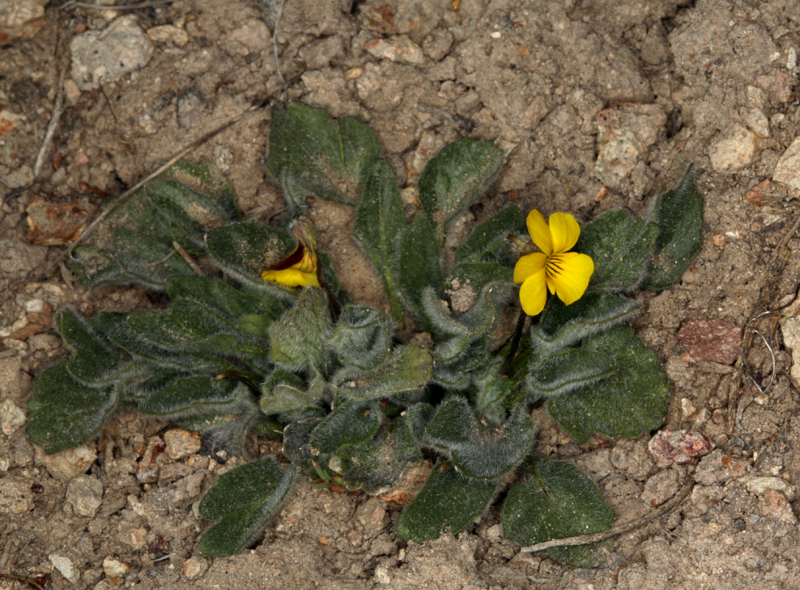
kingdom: Plantae
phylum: Tracheophyta
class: Magnoliopsida
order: Malpighiales
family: Violaceae
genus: Viola
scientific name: Viola aurea
